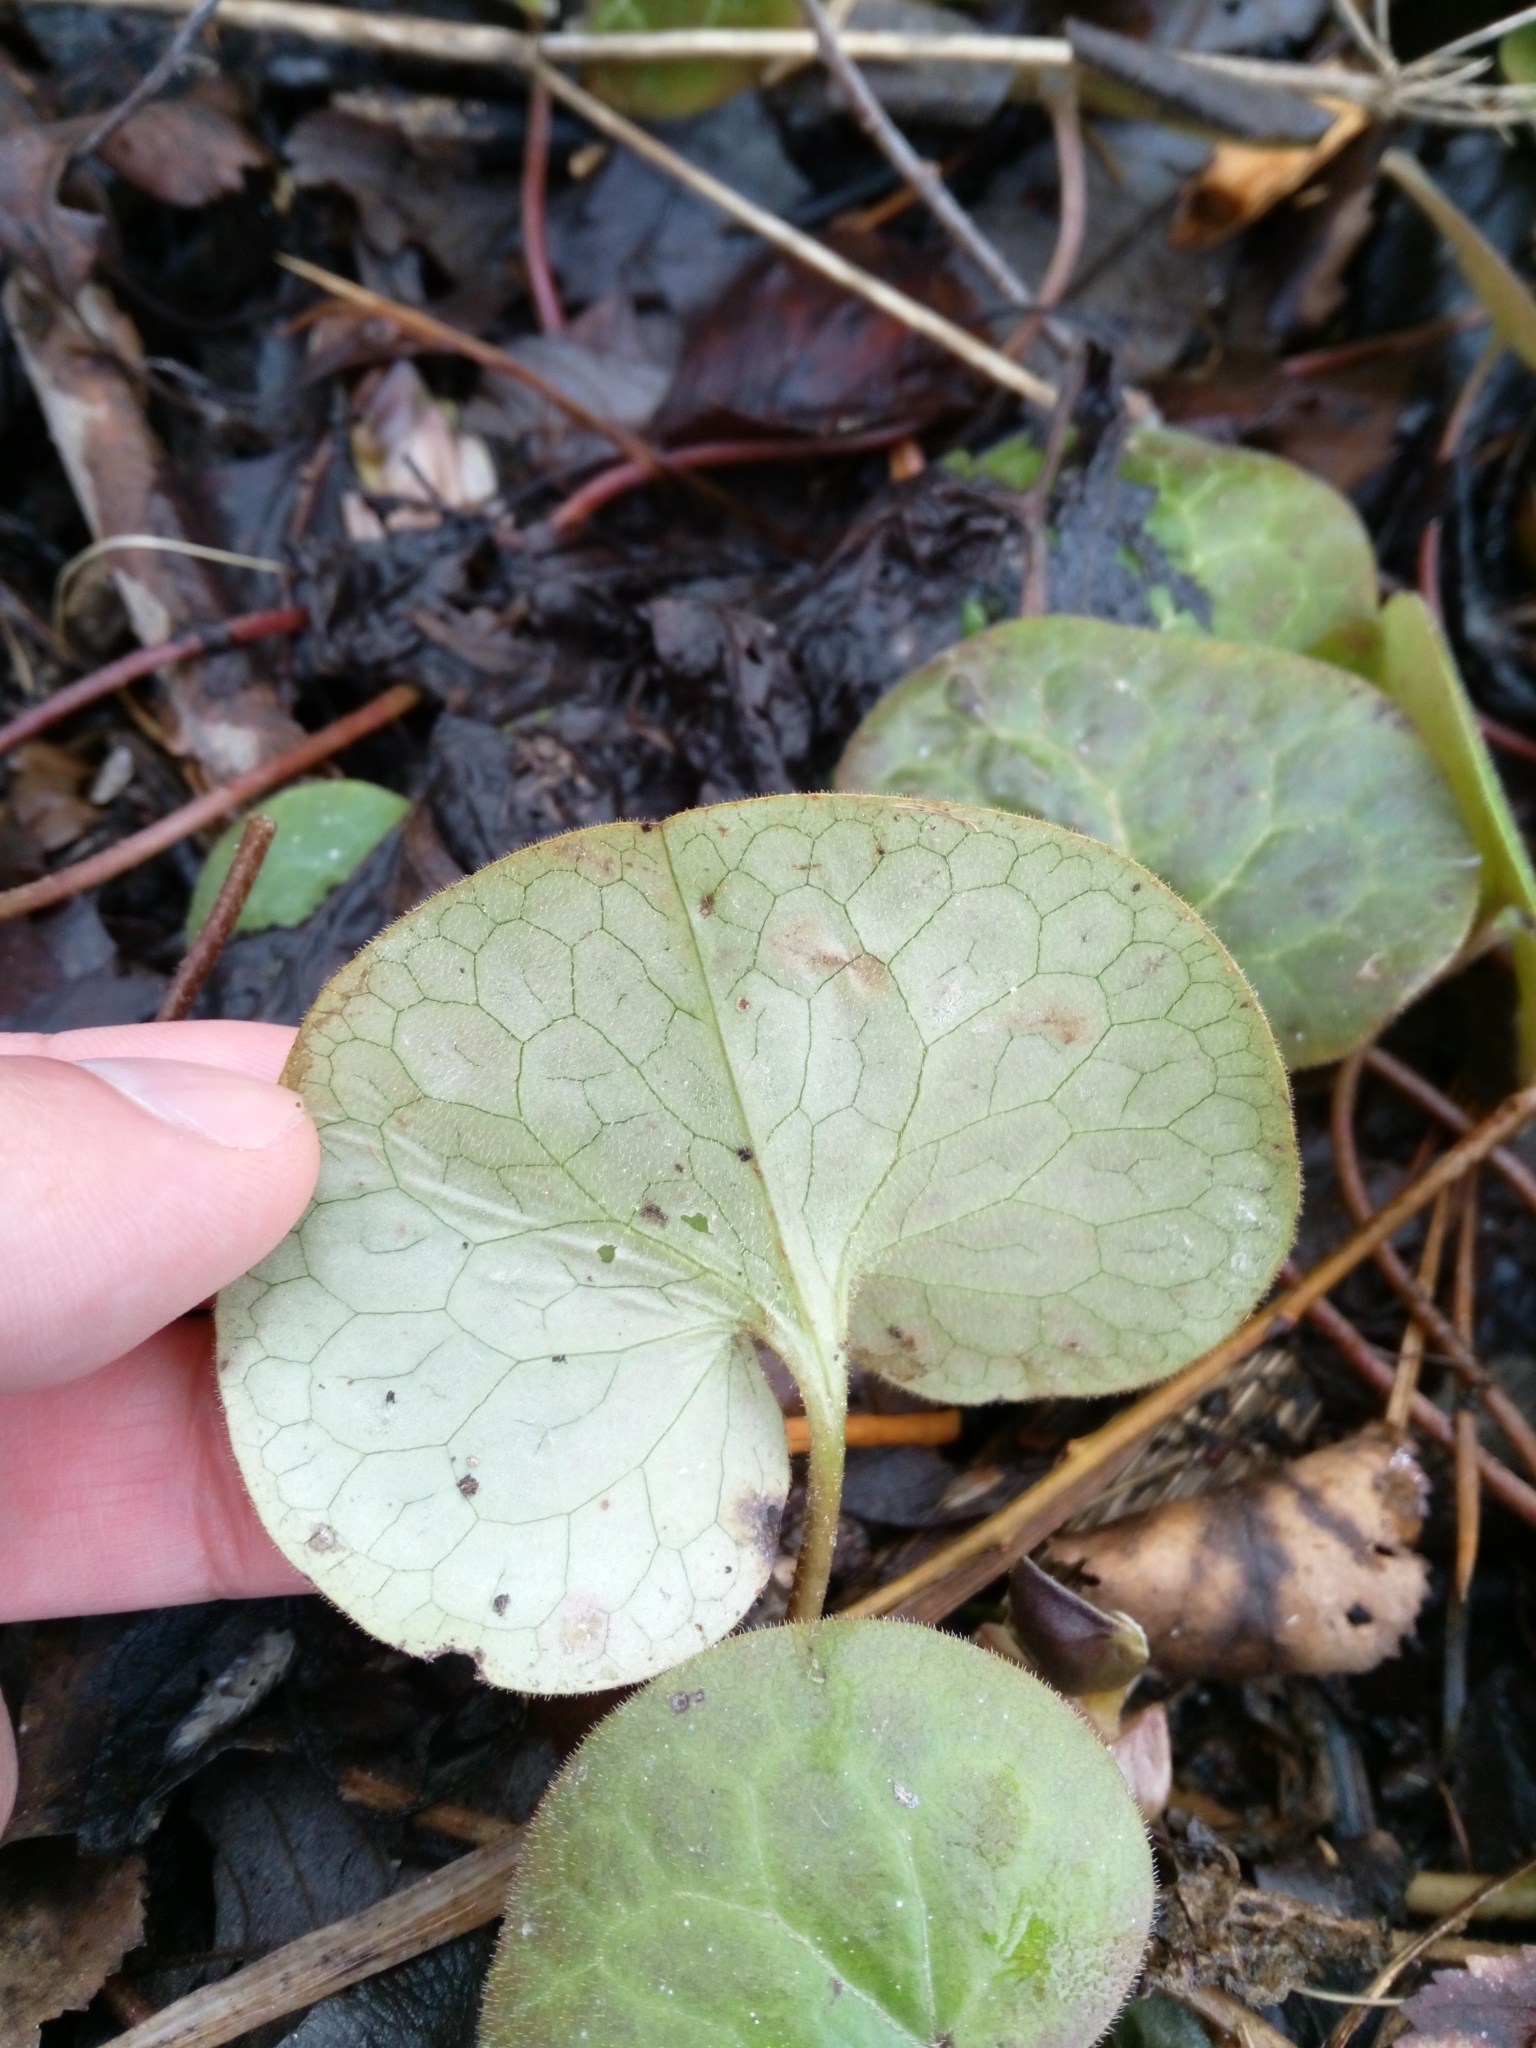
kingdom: Plantae
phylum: Tracheophyta
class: Magnoliopsida
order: Piperales
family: Aristolochiaceae
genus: Asarum
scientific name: Asarum europaeum
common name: Asarabacca
